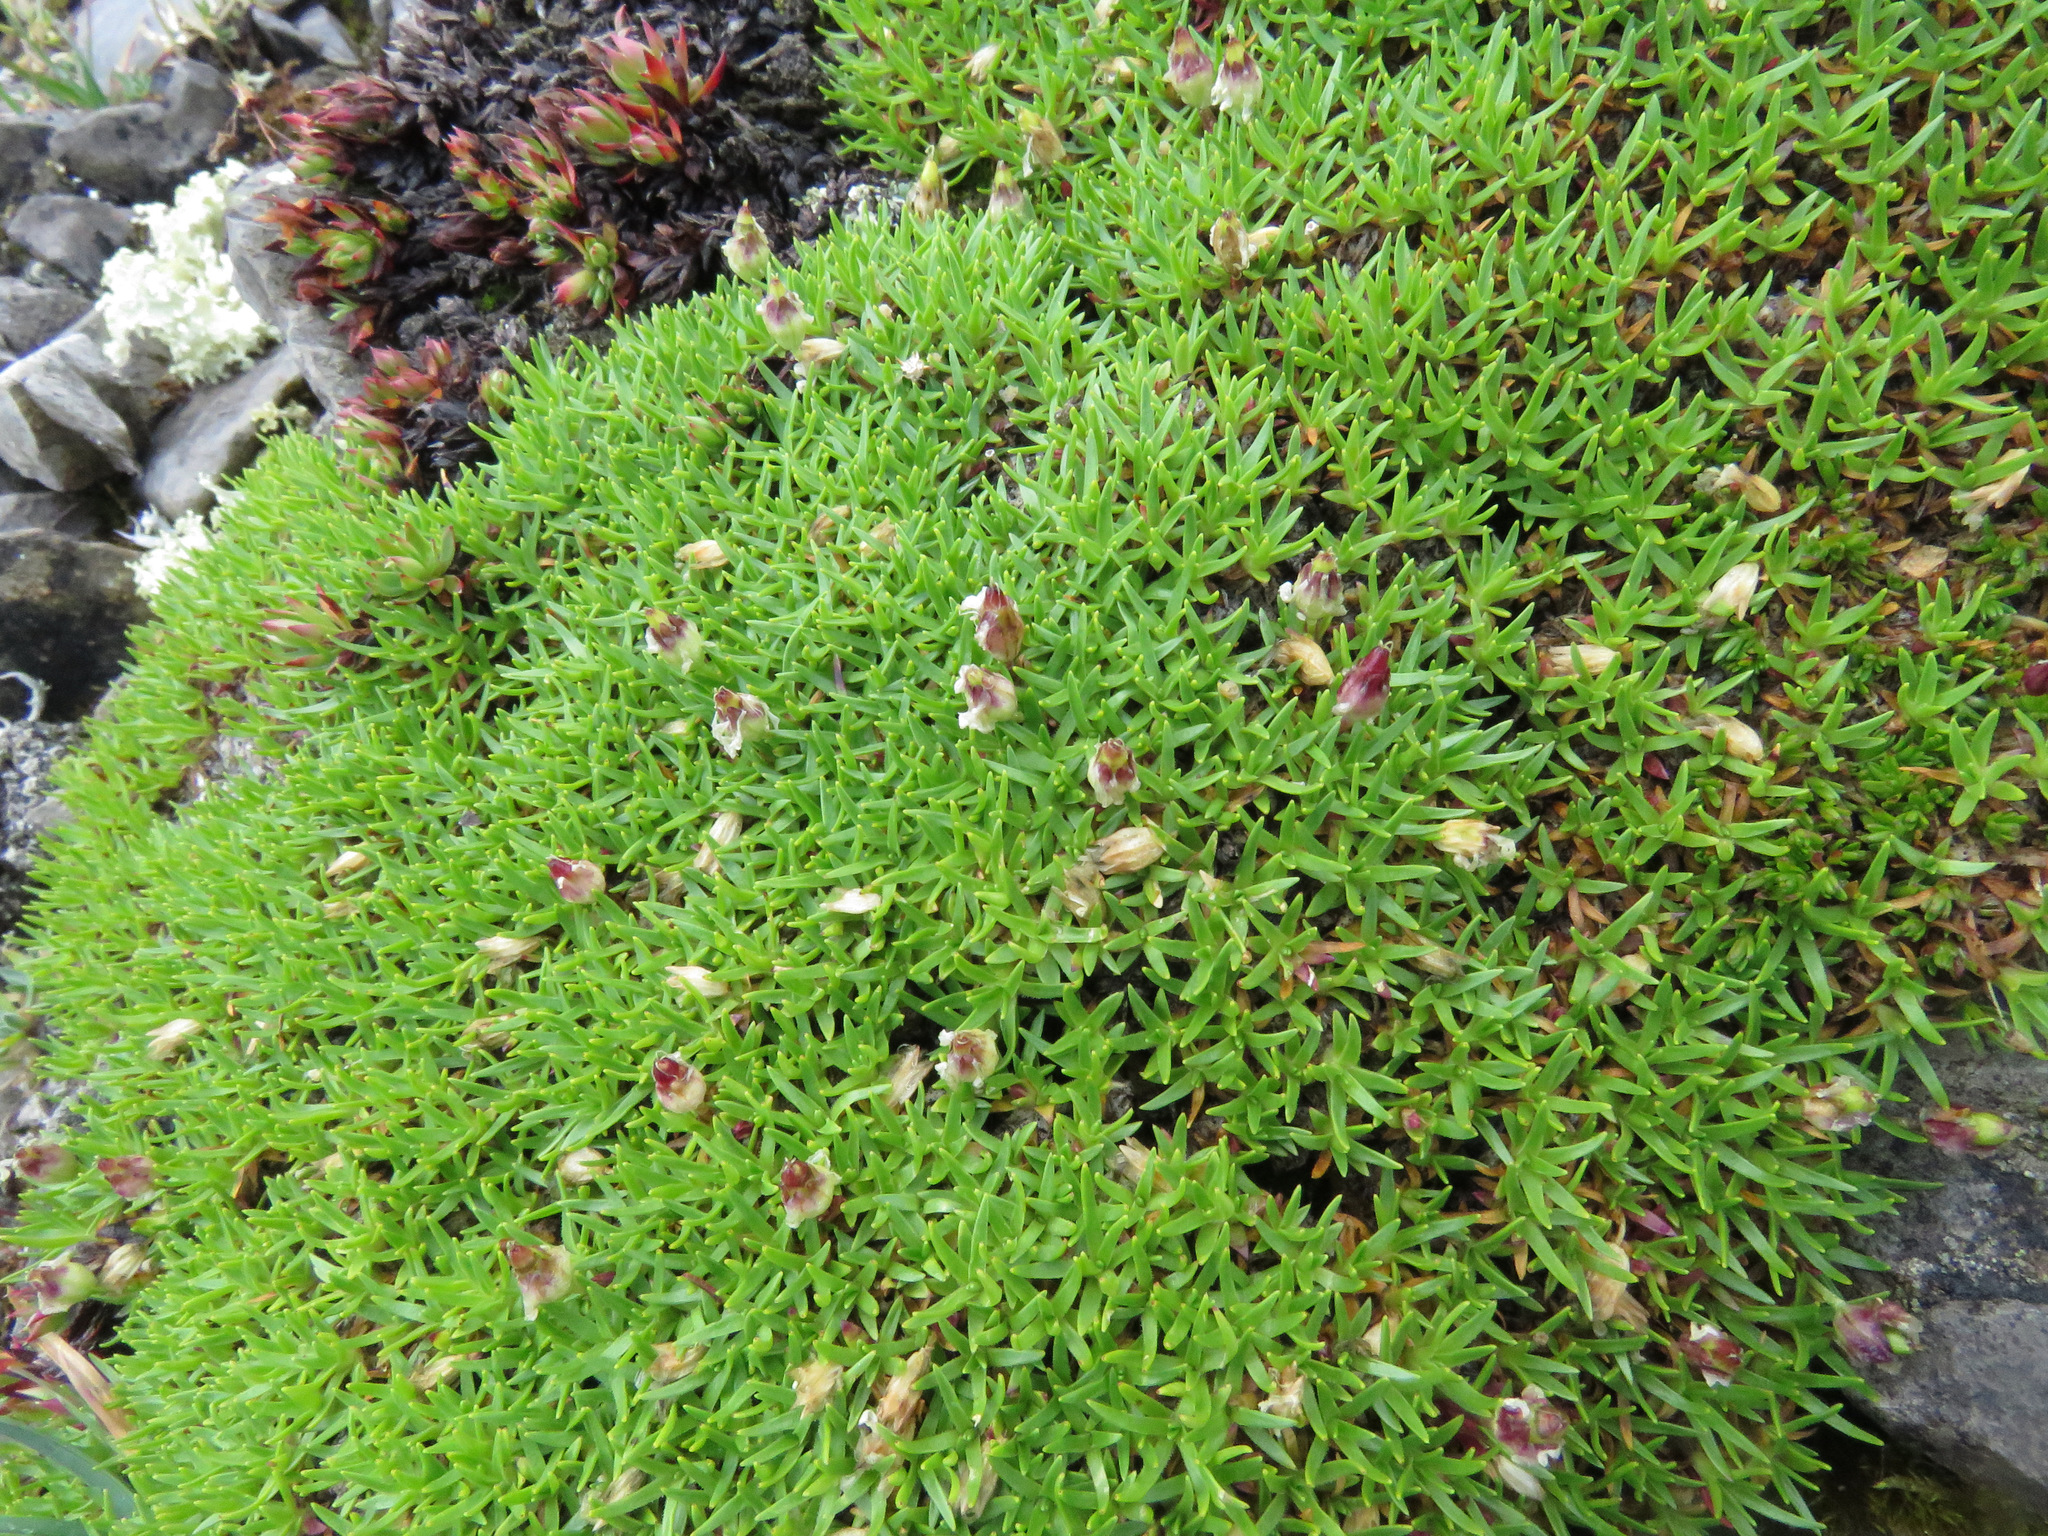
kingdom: Plantae
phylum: Tracheophyta
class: Magnoliopsida
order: Caryophyllales
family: Caryophyllaceae
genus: Silene
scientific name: Silene acaulis
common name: Moss campion
